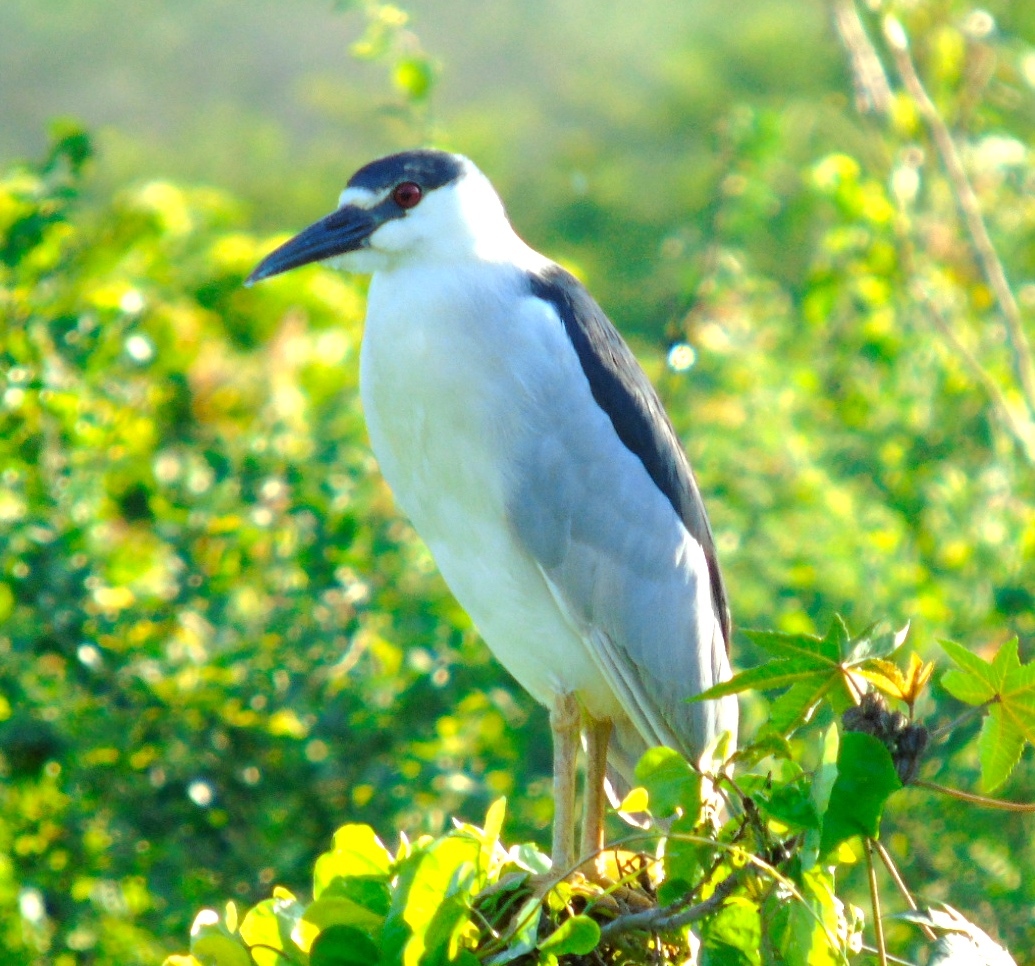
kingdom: Animalia
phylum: Chordata
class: Aves
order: Pelecaniformes
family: Ardeidae
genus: Nycticorax
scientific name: Nycticorax nycticorax
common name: Black-crowned night heron
